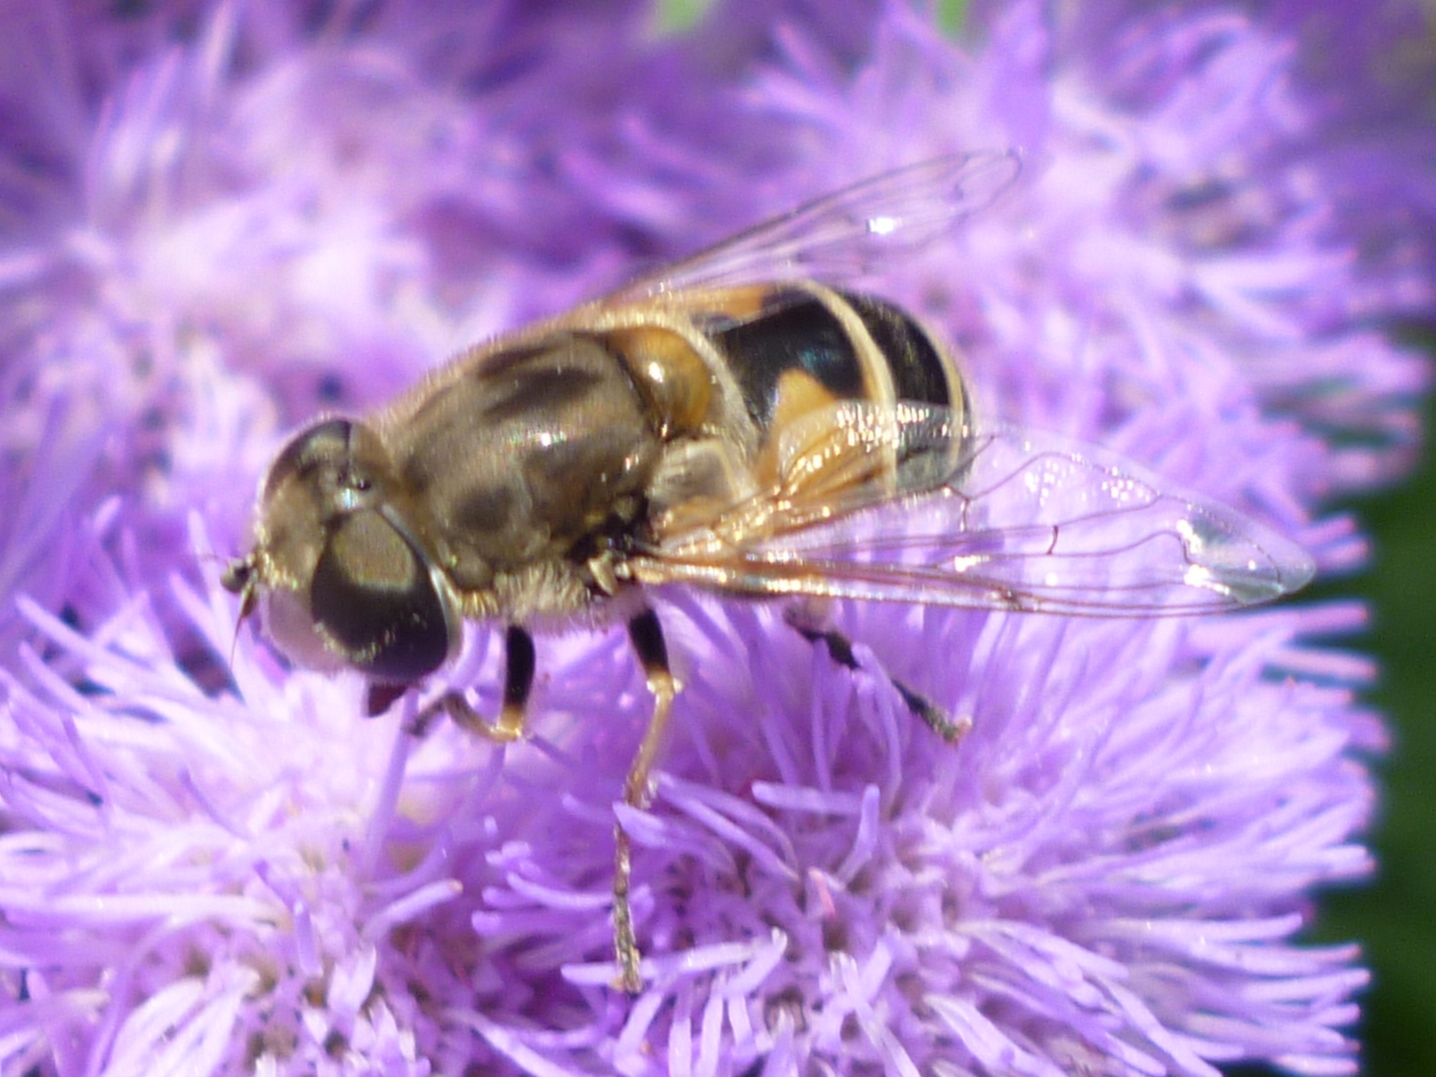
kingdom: Animalia
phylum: Arthropoda
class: Insecta
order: Diptera
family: Syrphidae
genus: Eristalis
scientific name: Eristalis arbustorum
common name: Hover fly
